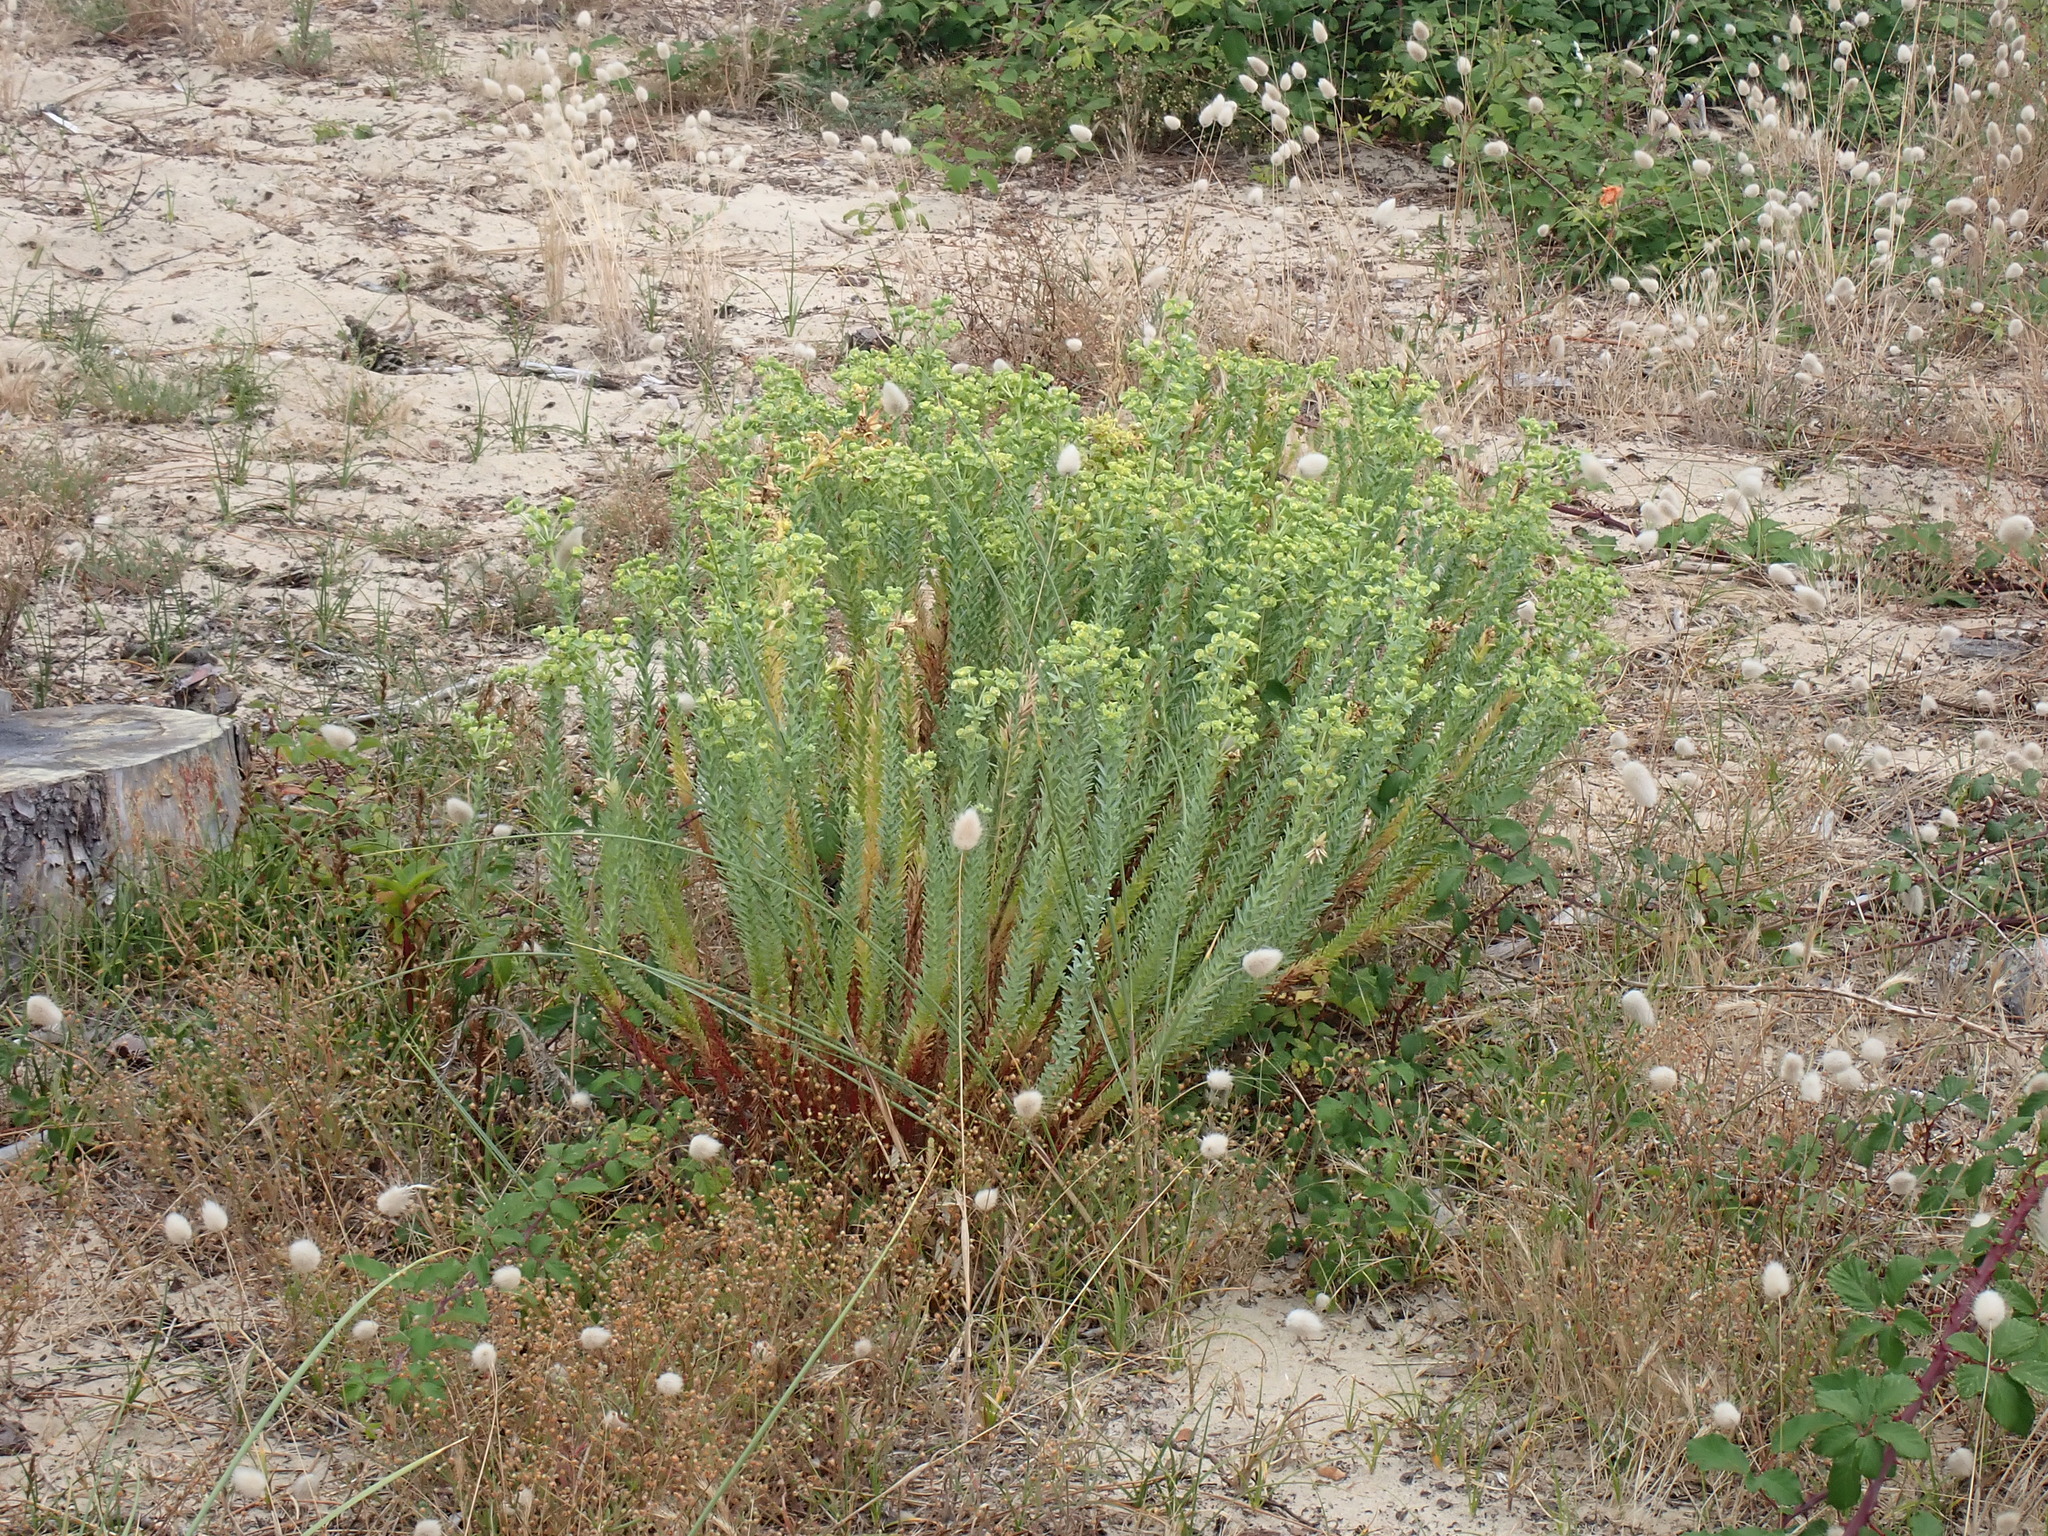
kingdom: Plantae
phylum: Tracheophyta
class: Magnoliopsida
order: Malpighiales
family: Euphorbiaceae
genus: Euphorbia
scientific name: Euphorbia paralias
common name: Sea spurge
